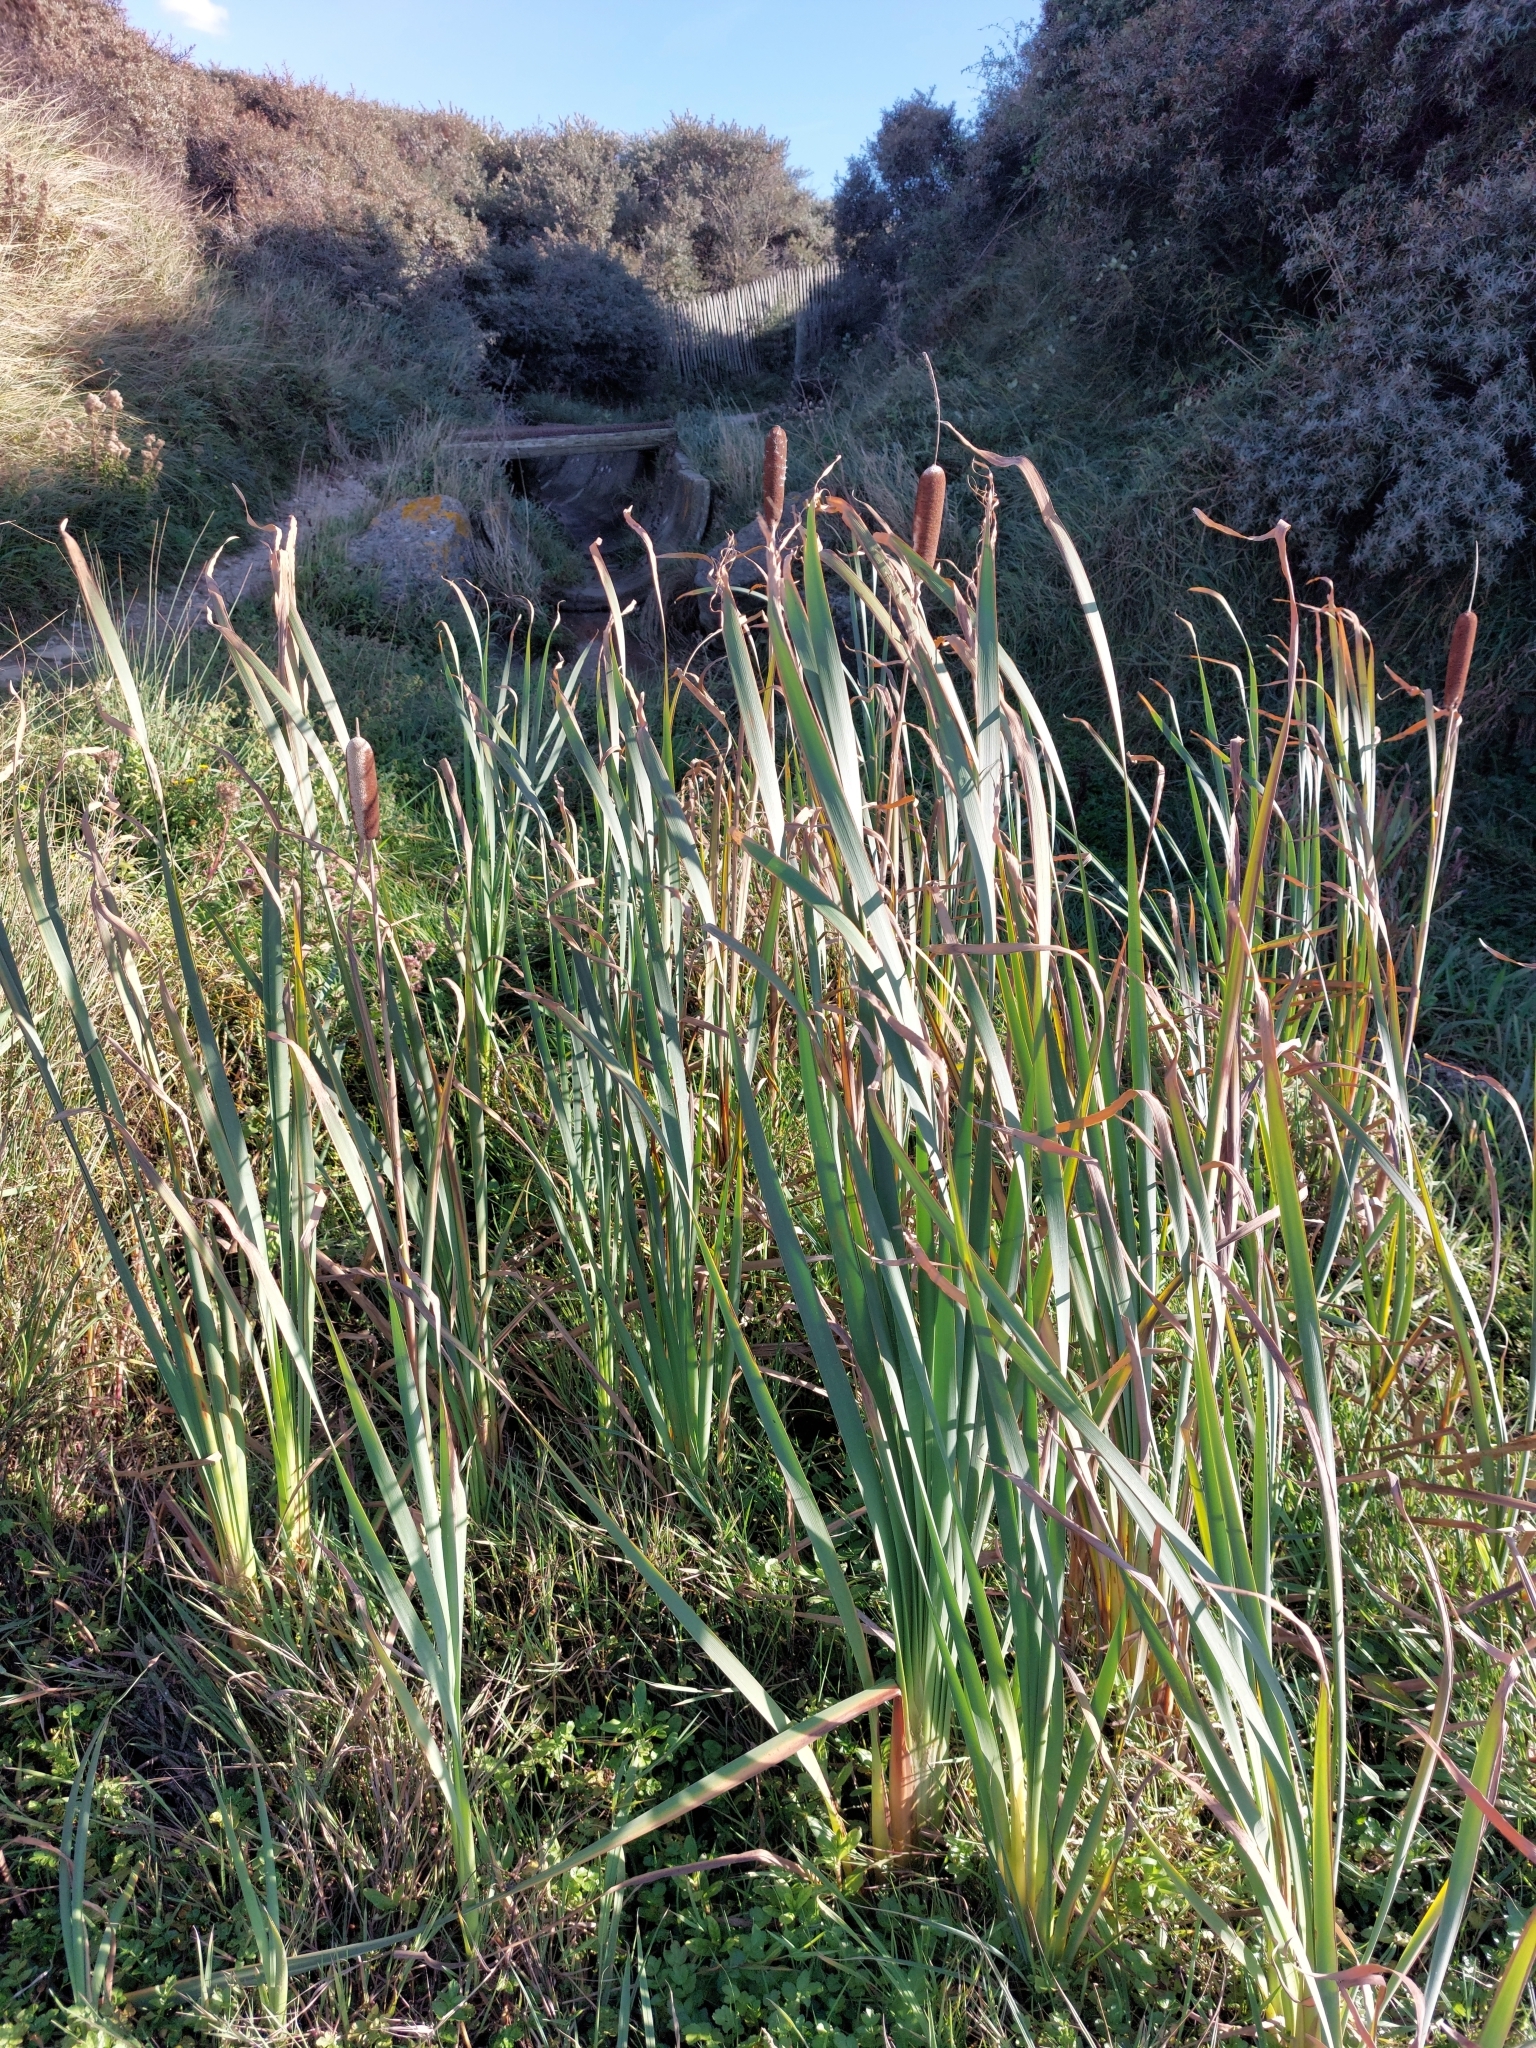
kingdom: Plantae
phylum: Tracheophyta
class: Liliopsida
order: Poales
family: Typhaceae
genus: Typha
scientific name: Typha latifolia
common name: Broadleaf cattail
